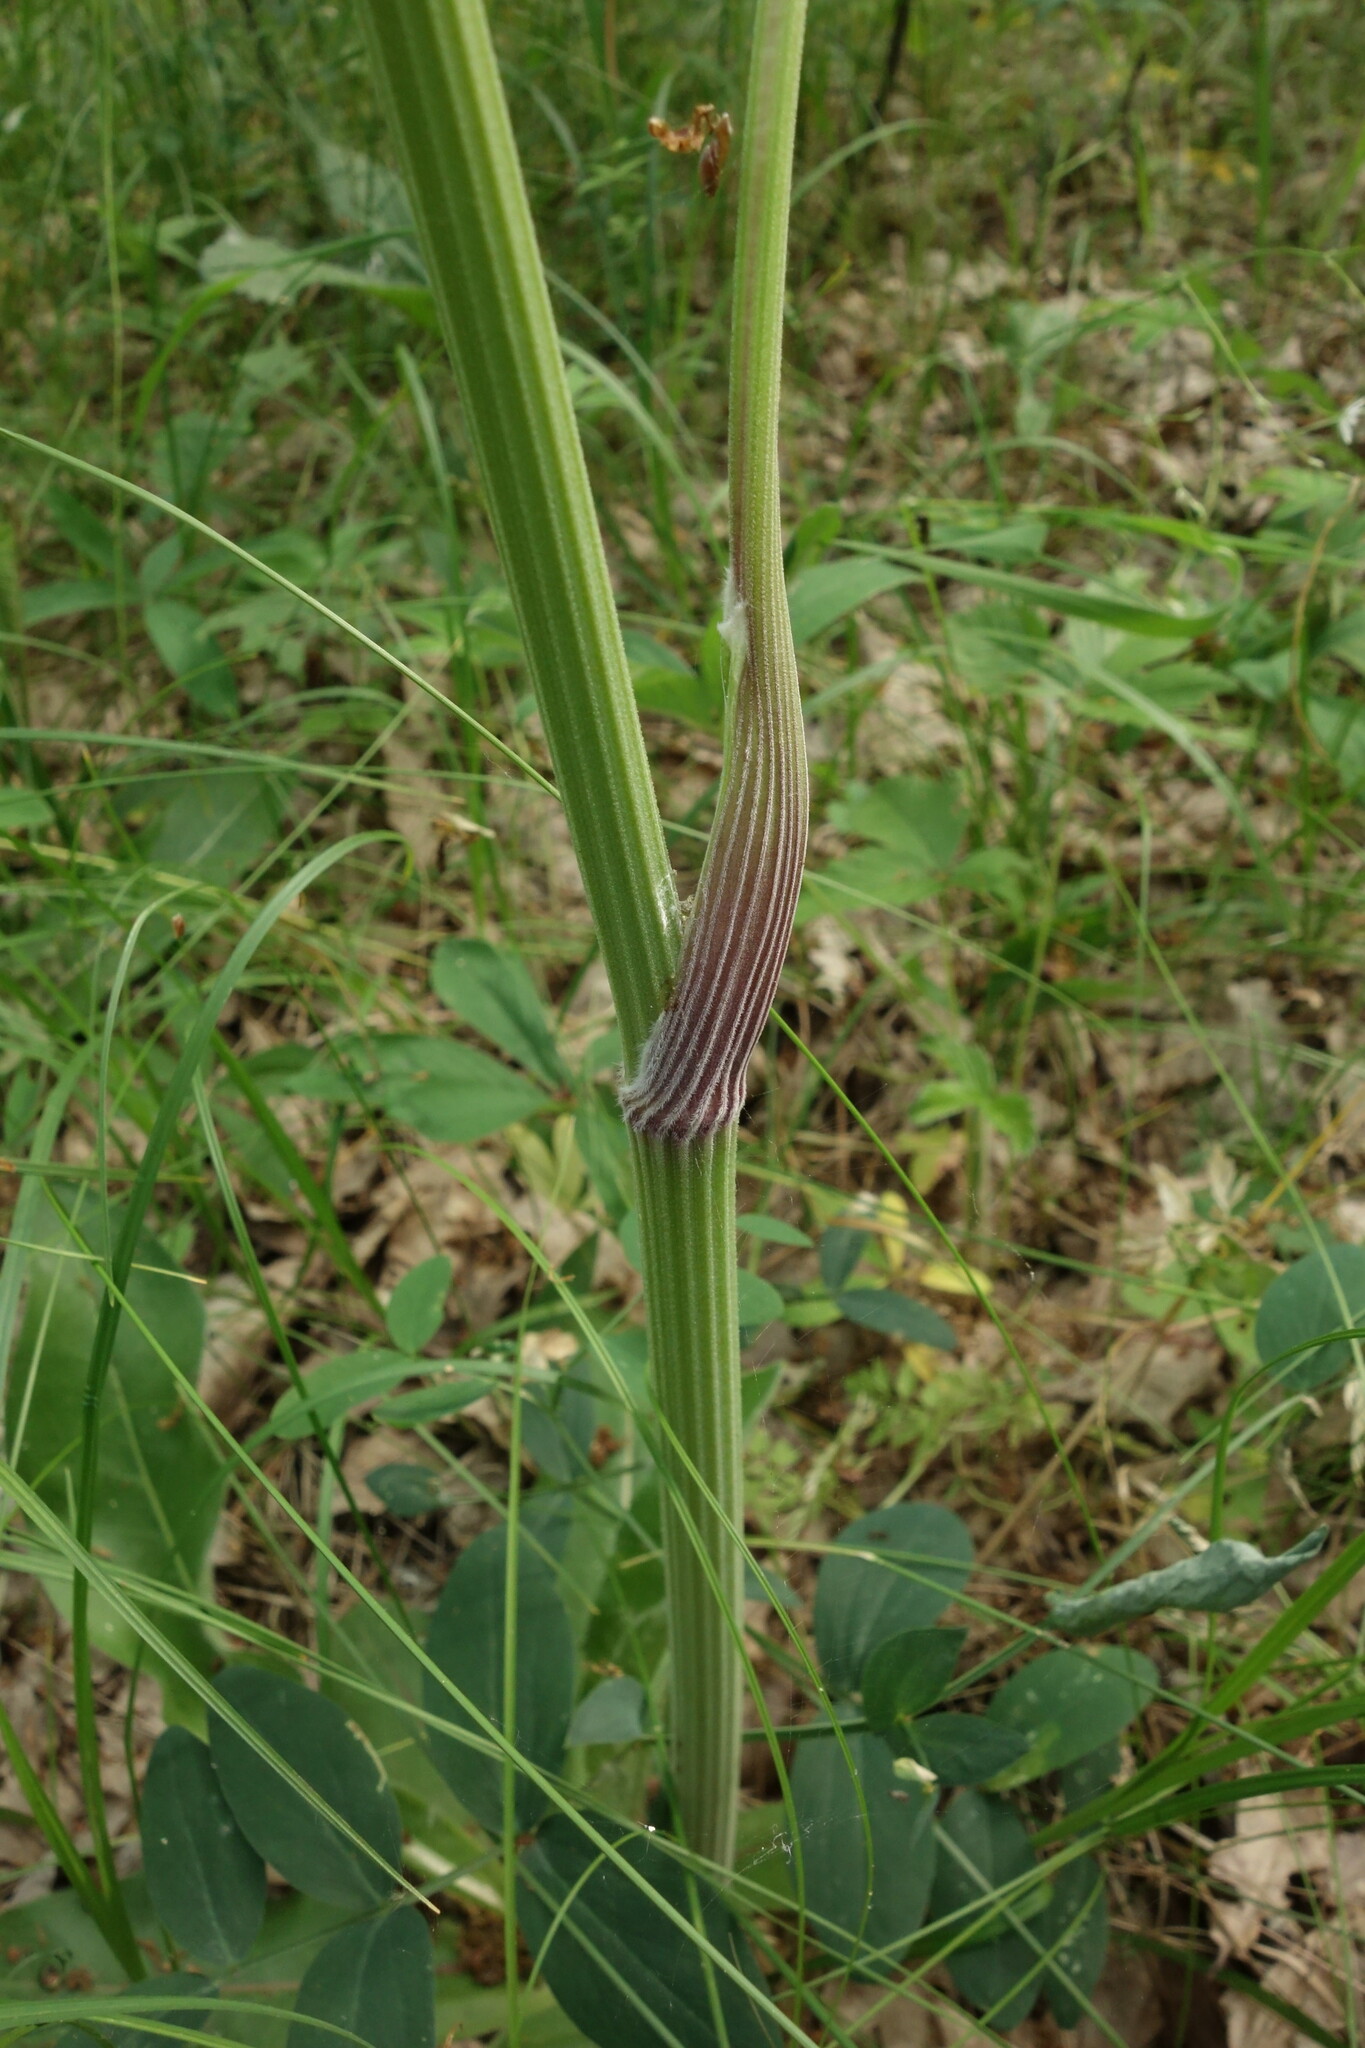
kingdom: Plantae
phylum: Tracheophyta
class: Magnoliopsida
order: Apiales
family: Apiaceae
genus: Anthriscus
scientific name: Anthriscus sylvestris
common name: Cow parsley
